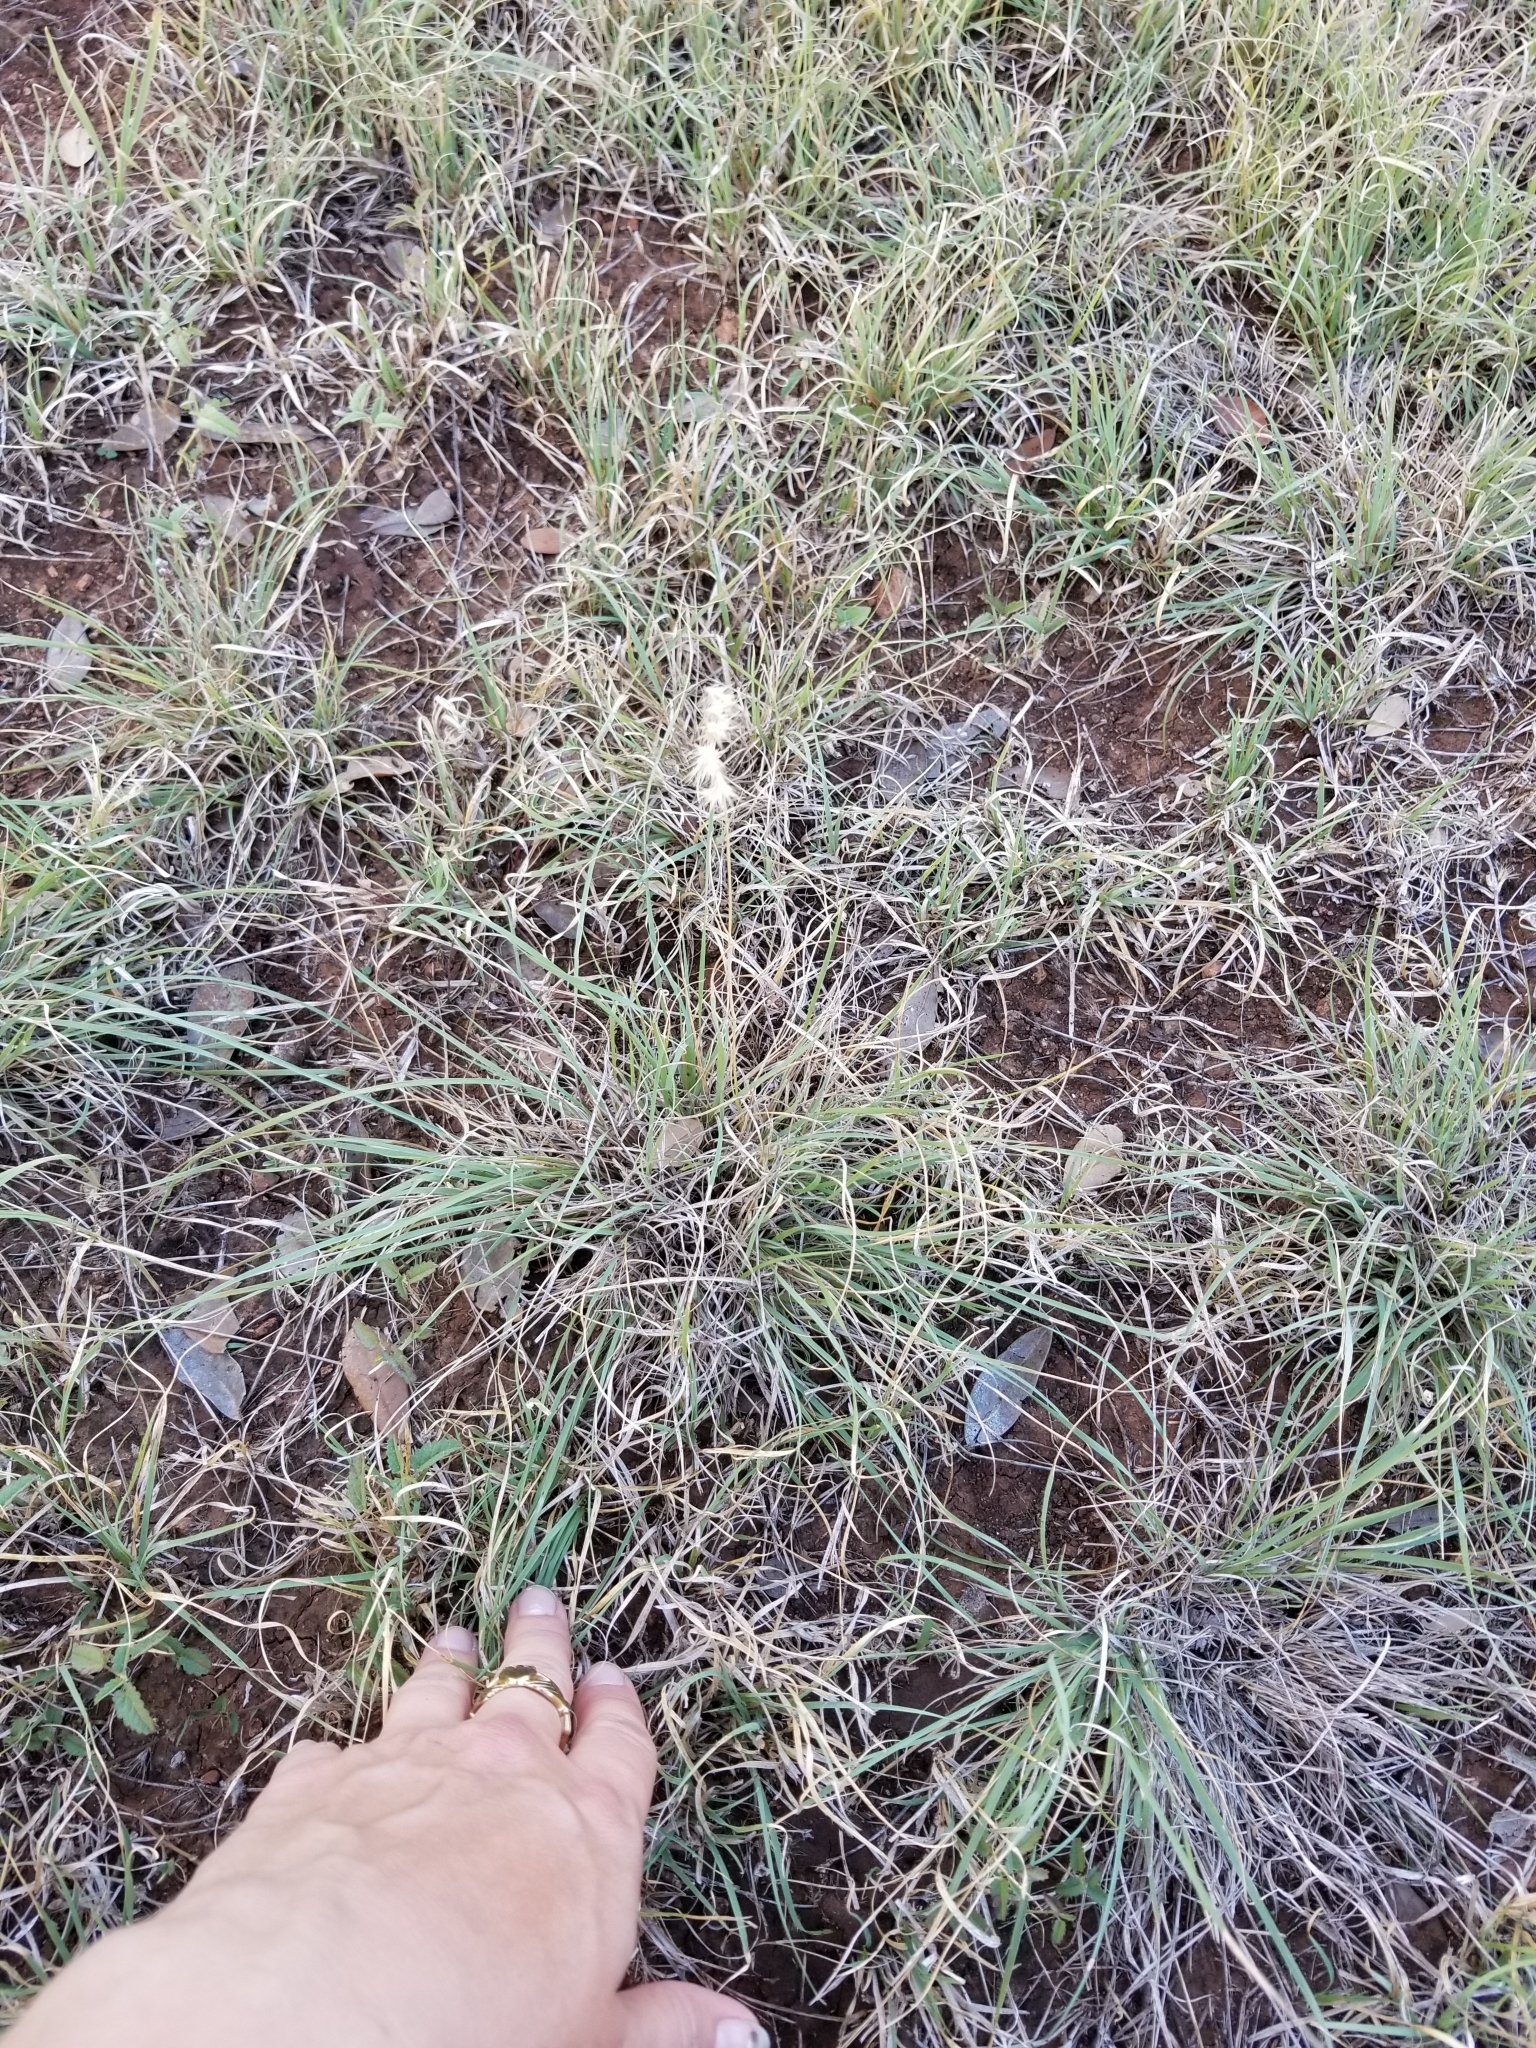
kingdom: Plantae
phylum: Tracheophyta
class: Liliopsida
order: Poales
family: Poaceae
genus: Bouteloua
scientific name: Bouteloua rigidiseta
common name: Texas grama
